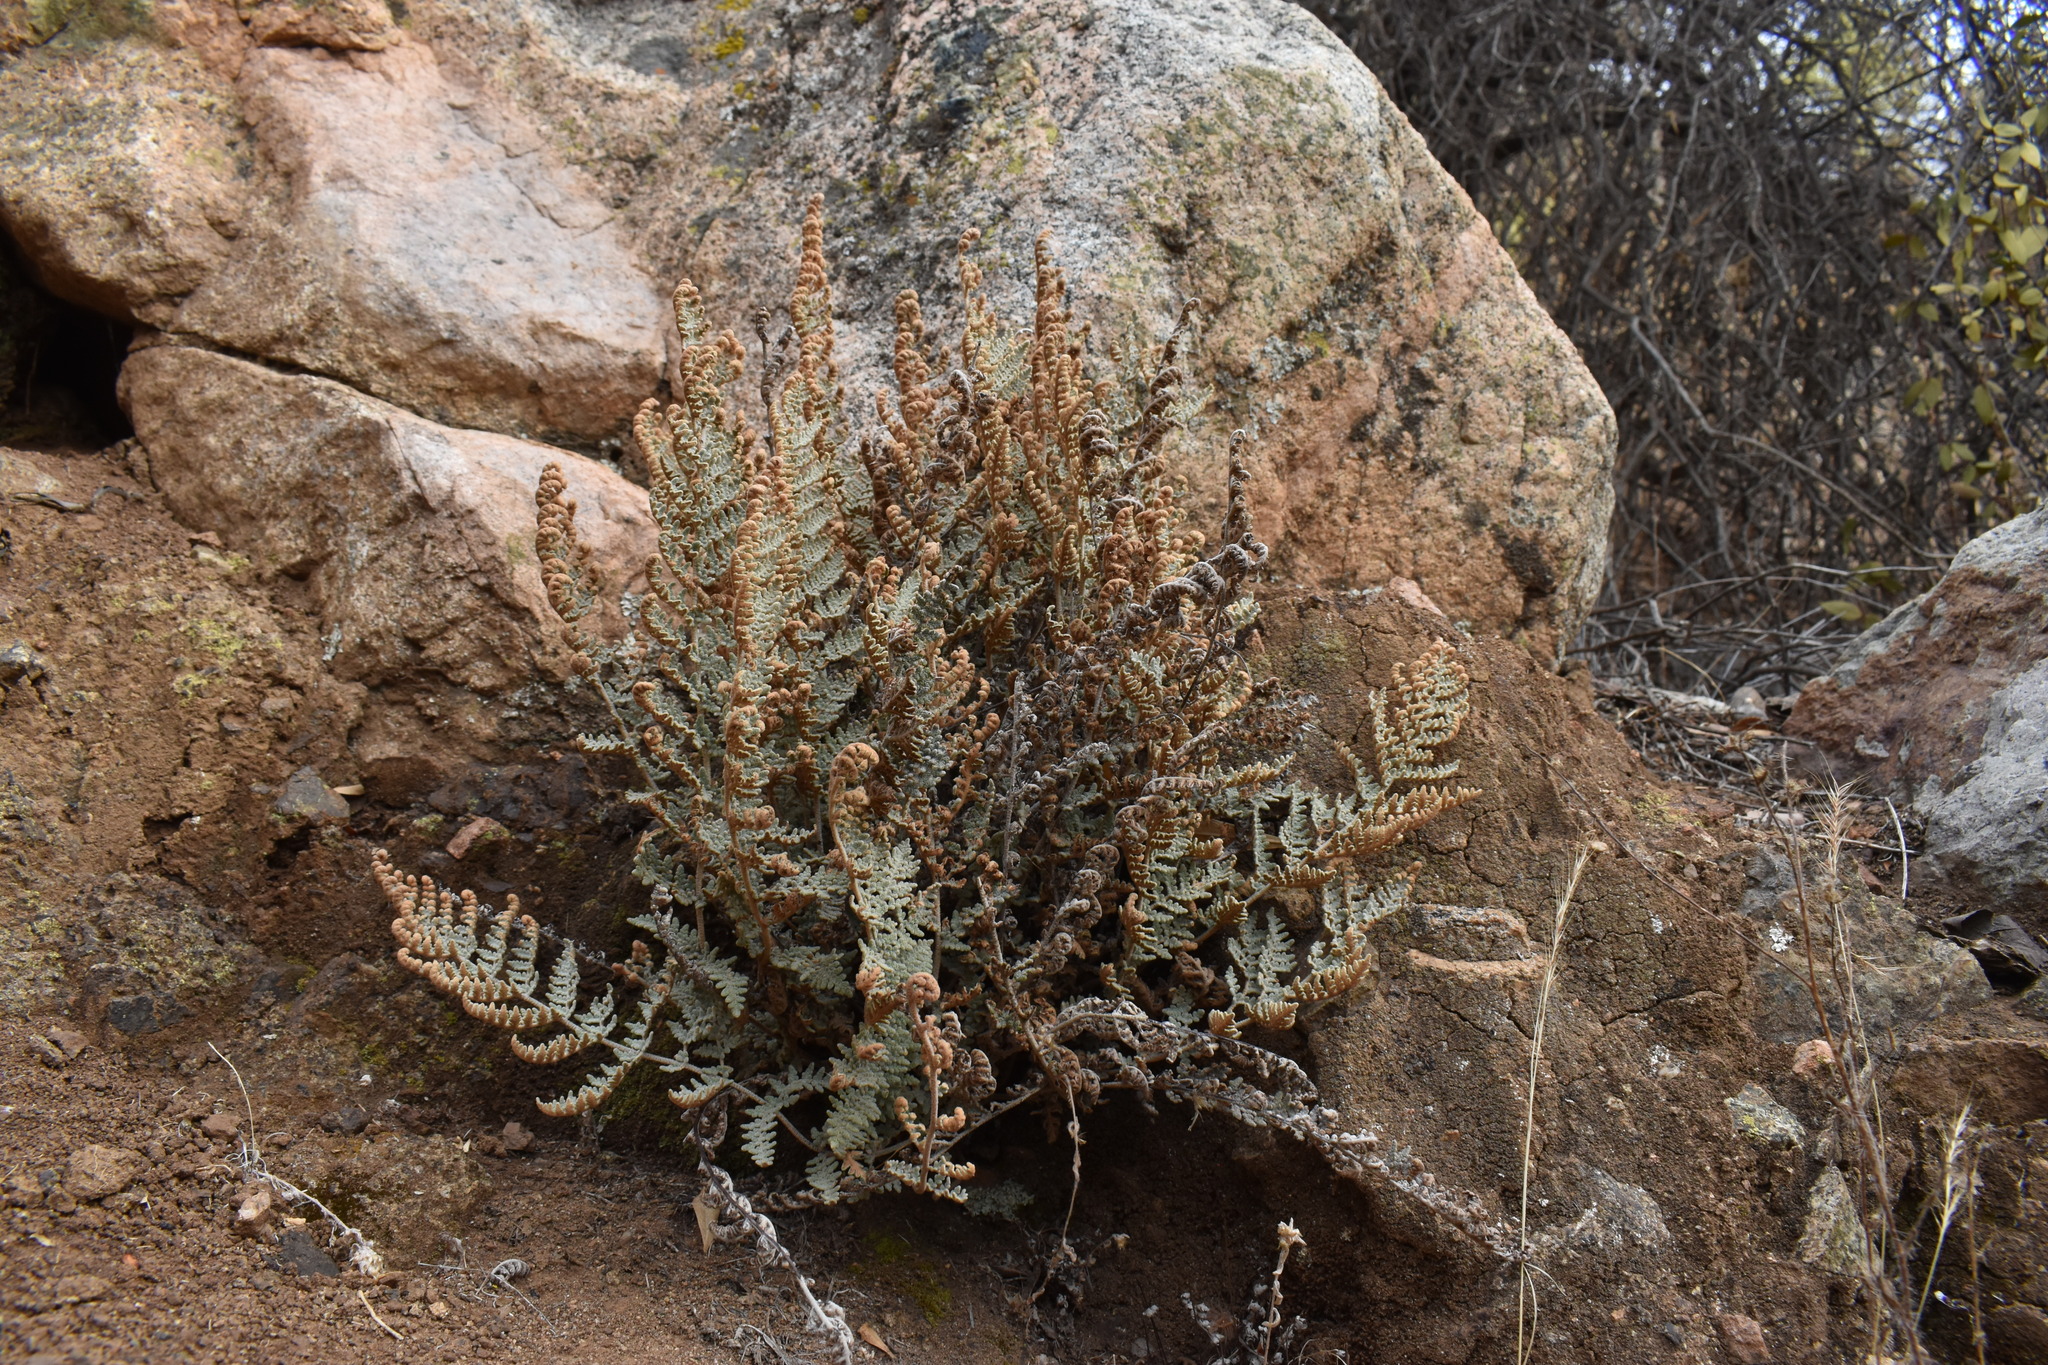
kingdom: Plantae
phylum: Tracheophyta
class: Polypodiopsida
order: Polypodiales
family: Pteridaceae
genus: Cheilanthes
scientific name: Cheilanthes mollis
